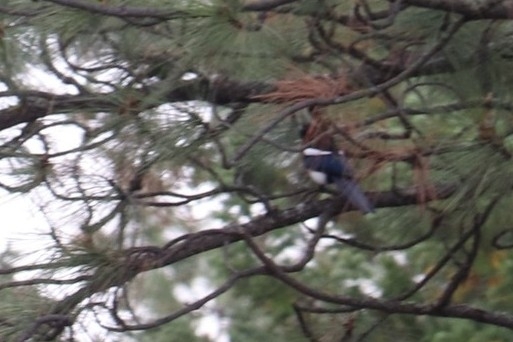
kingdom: Animalia
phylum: Chordata
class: Aves
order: Passeriformes
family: Corvidae
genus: Pica
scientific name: Pica hudsonia
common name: Black-billed magpie
